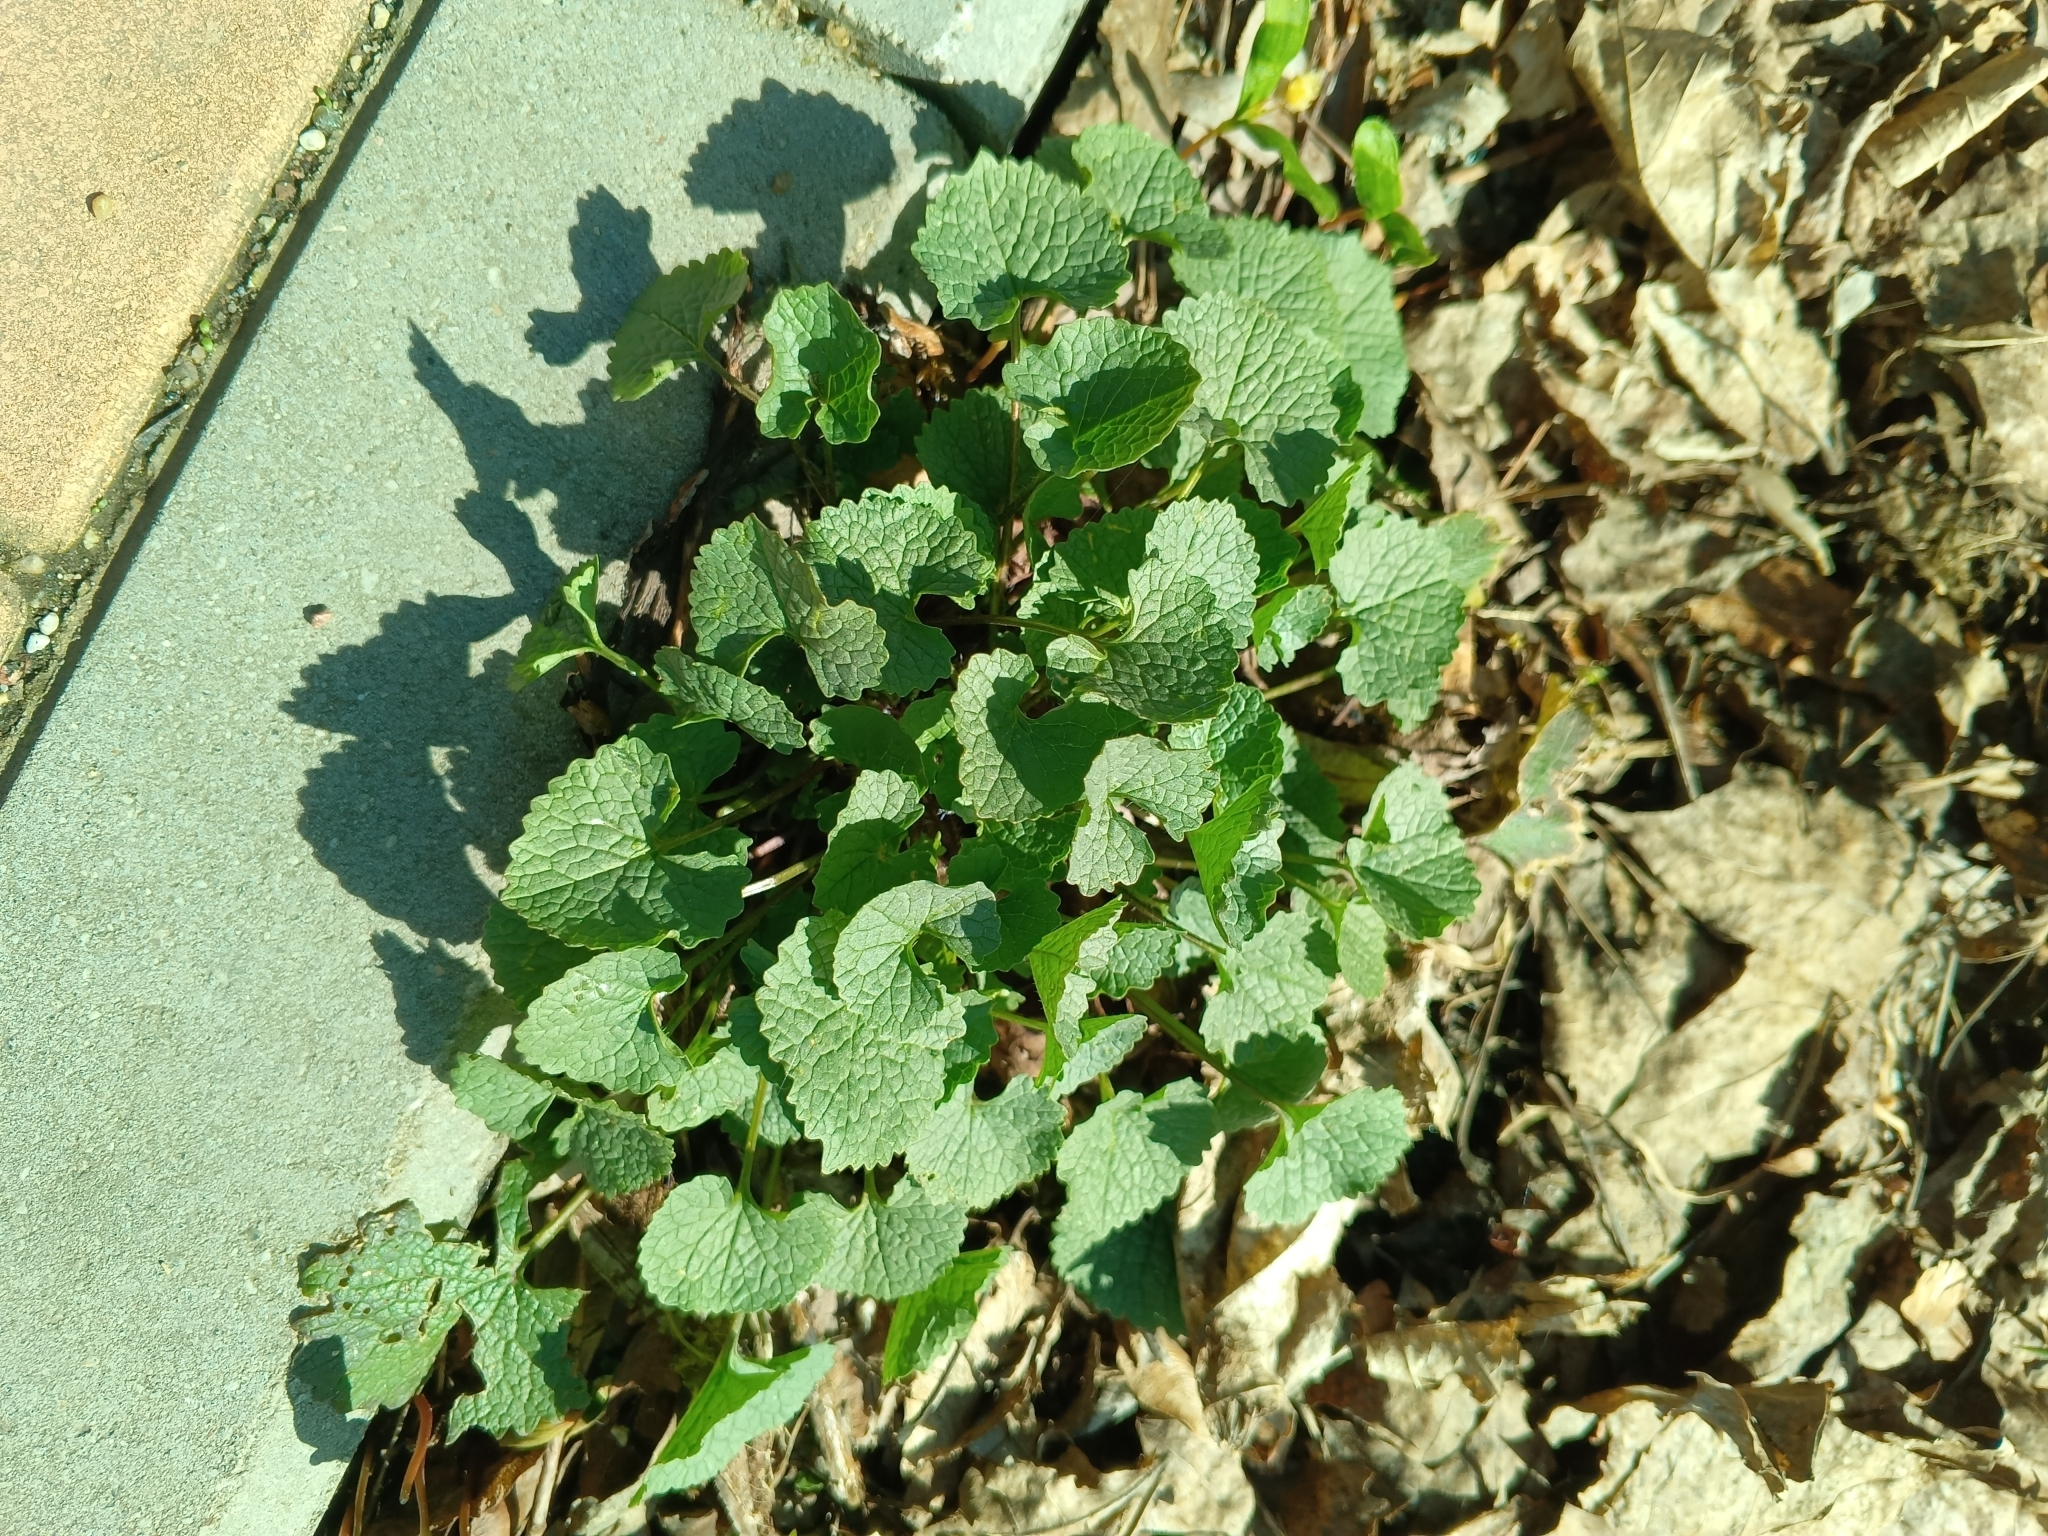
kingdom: Plantae
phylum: Tracheophyta
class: Magnoliopsida
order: Brassicales
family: Brassicaceae
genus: Alliaria
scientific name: Alliaria petiolata
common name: Garlic mustard
